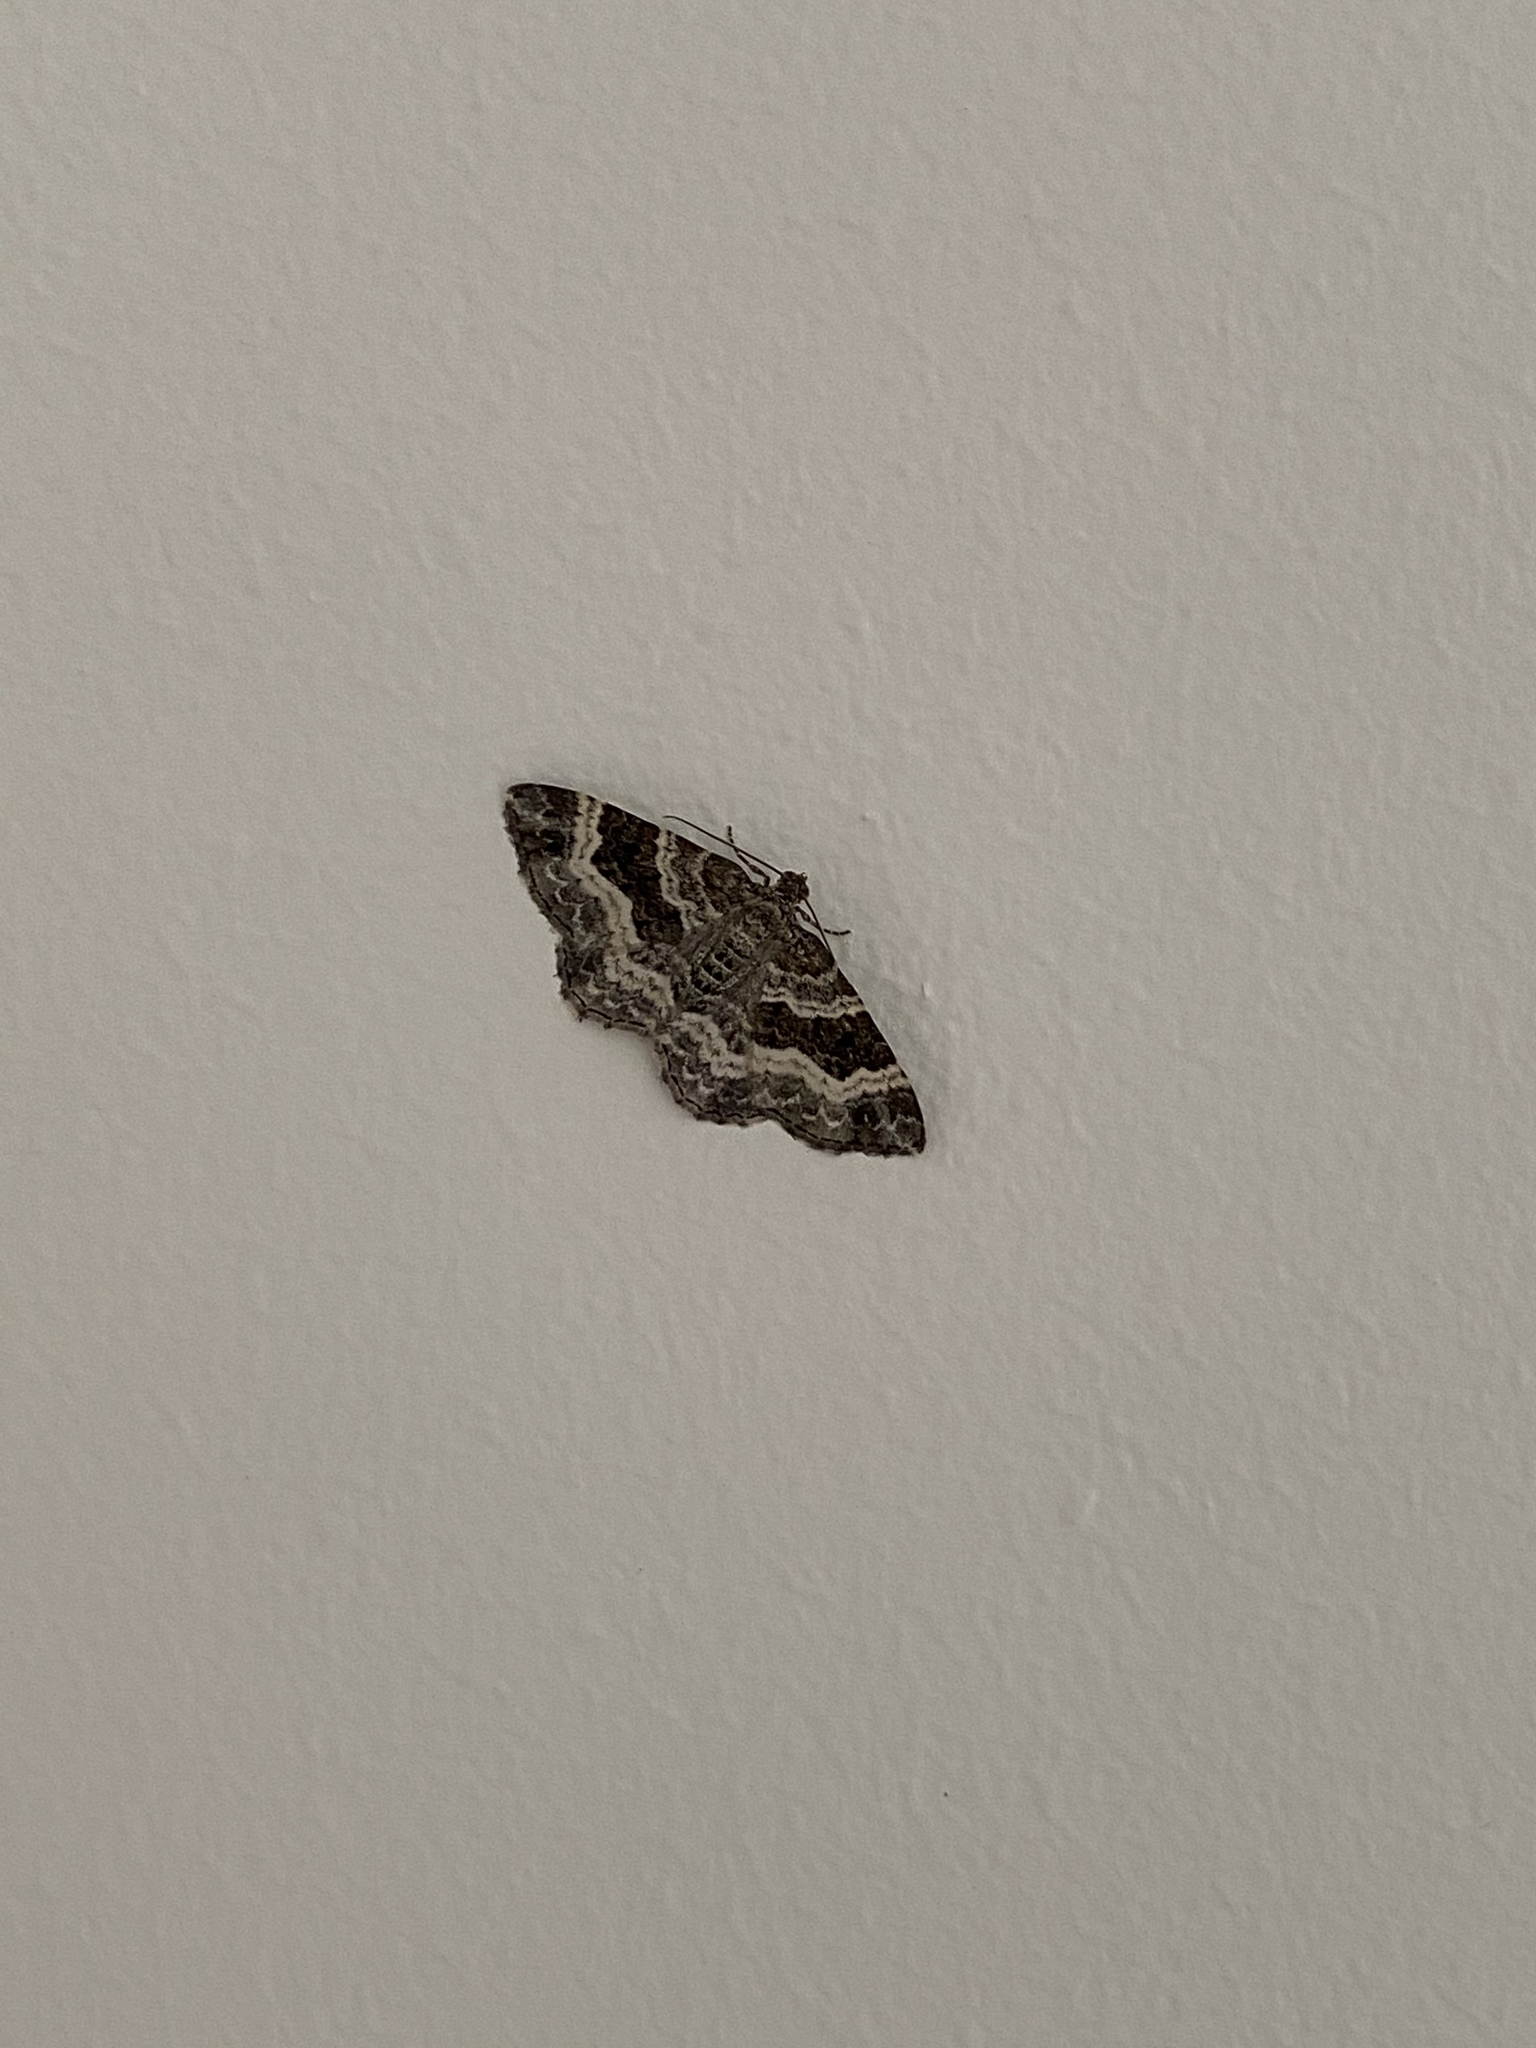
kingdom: Animalia
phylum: Arthropoda
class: Insecta
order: Lepidoptera
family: Geometridae
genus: Epirrhoe
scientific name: Epirrhoe alternata
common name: Common carpet
